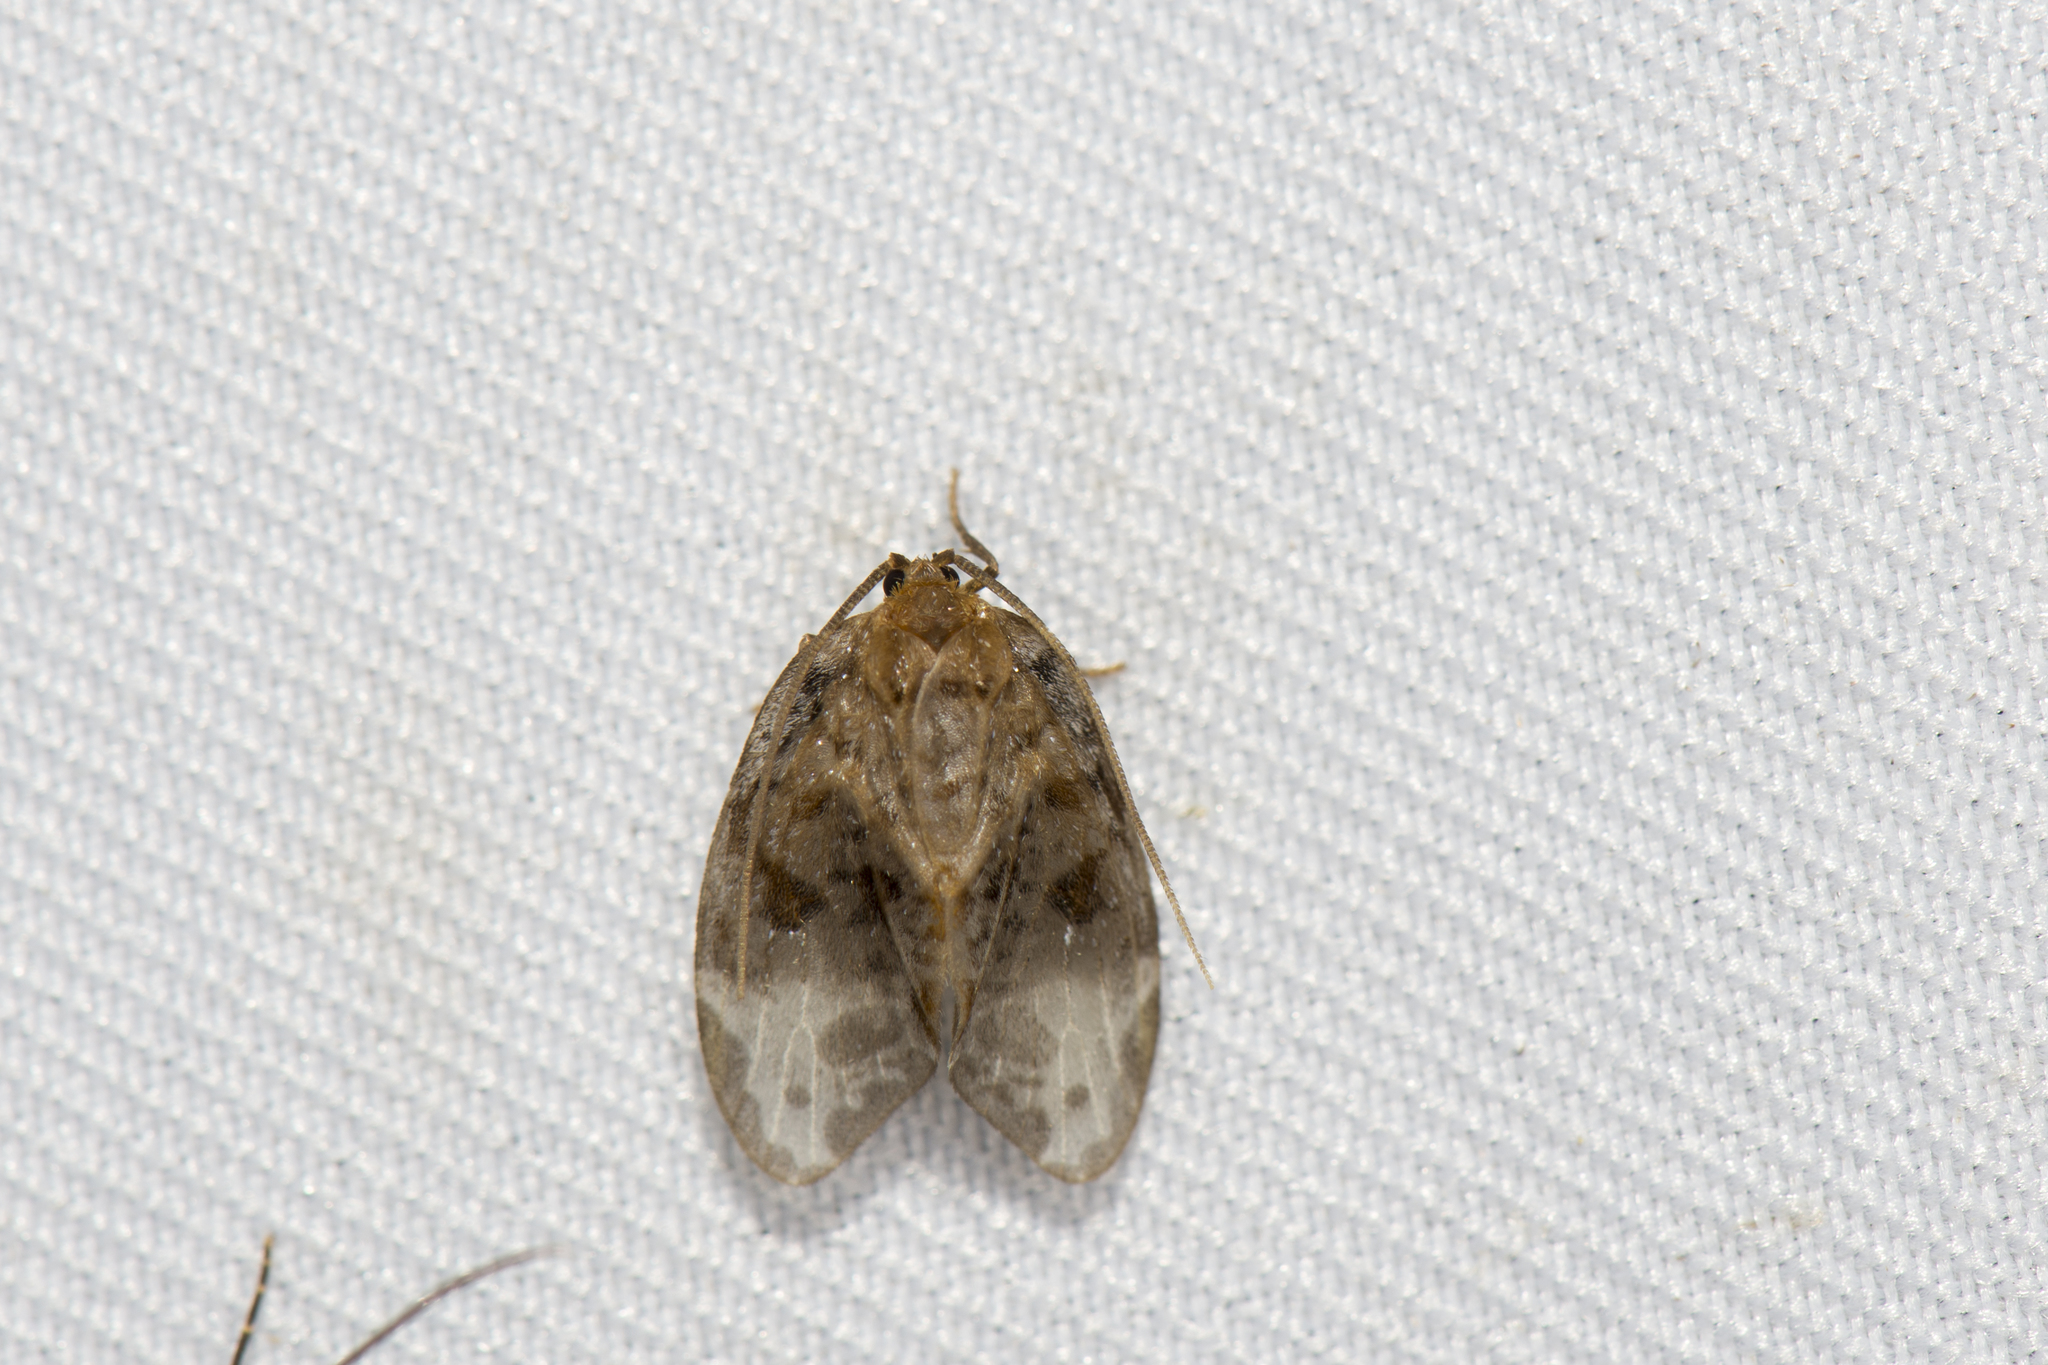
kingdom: Animalia
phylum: Arthropoda
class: Insecta
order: Lepidoptera
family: Neopseustidae
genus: Neopseustis
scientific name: Neopseustis meyricki
